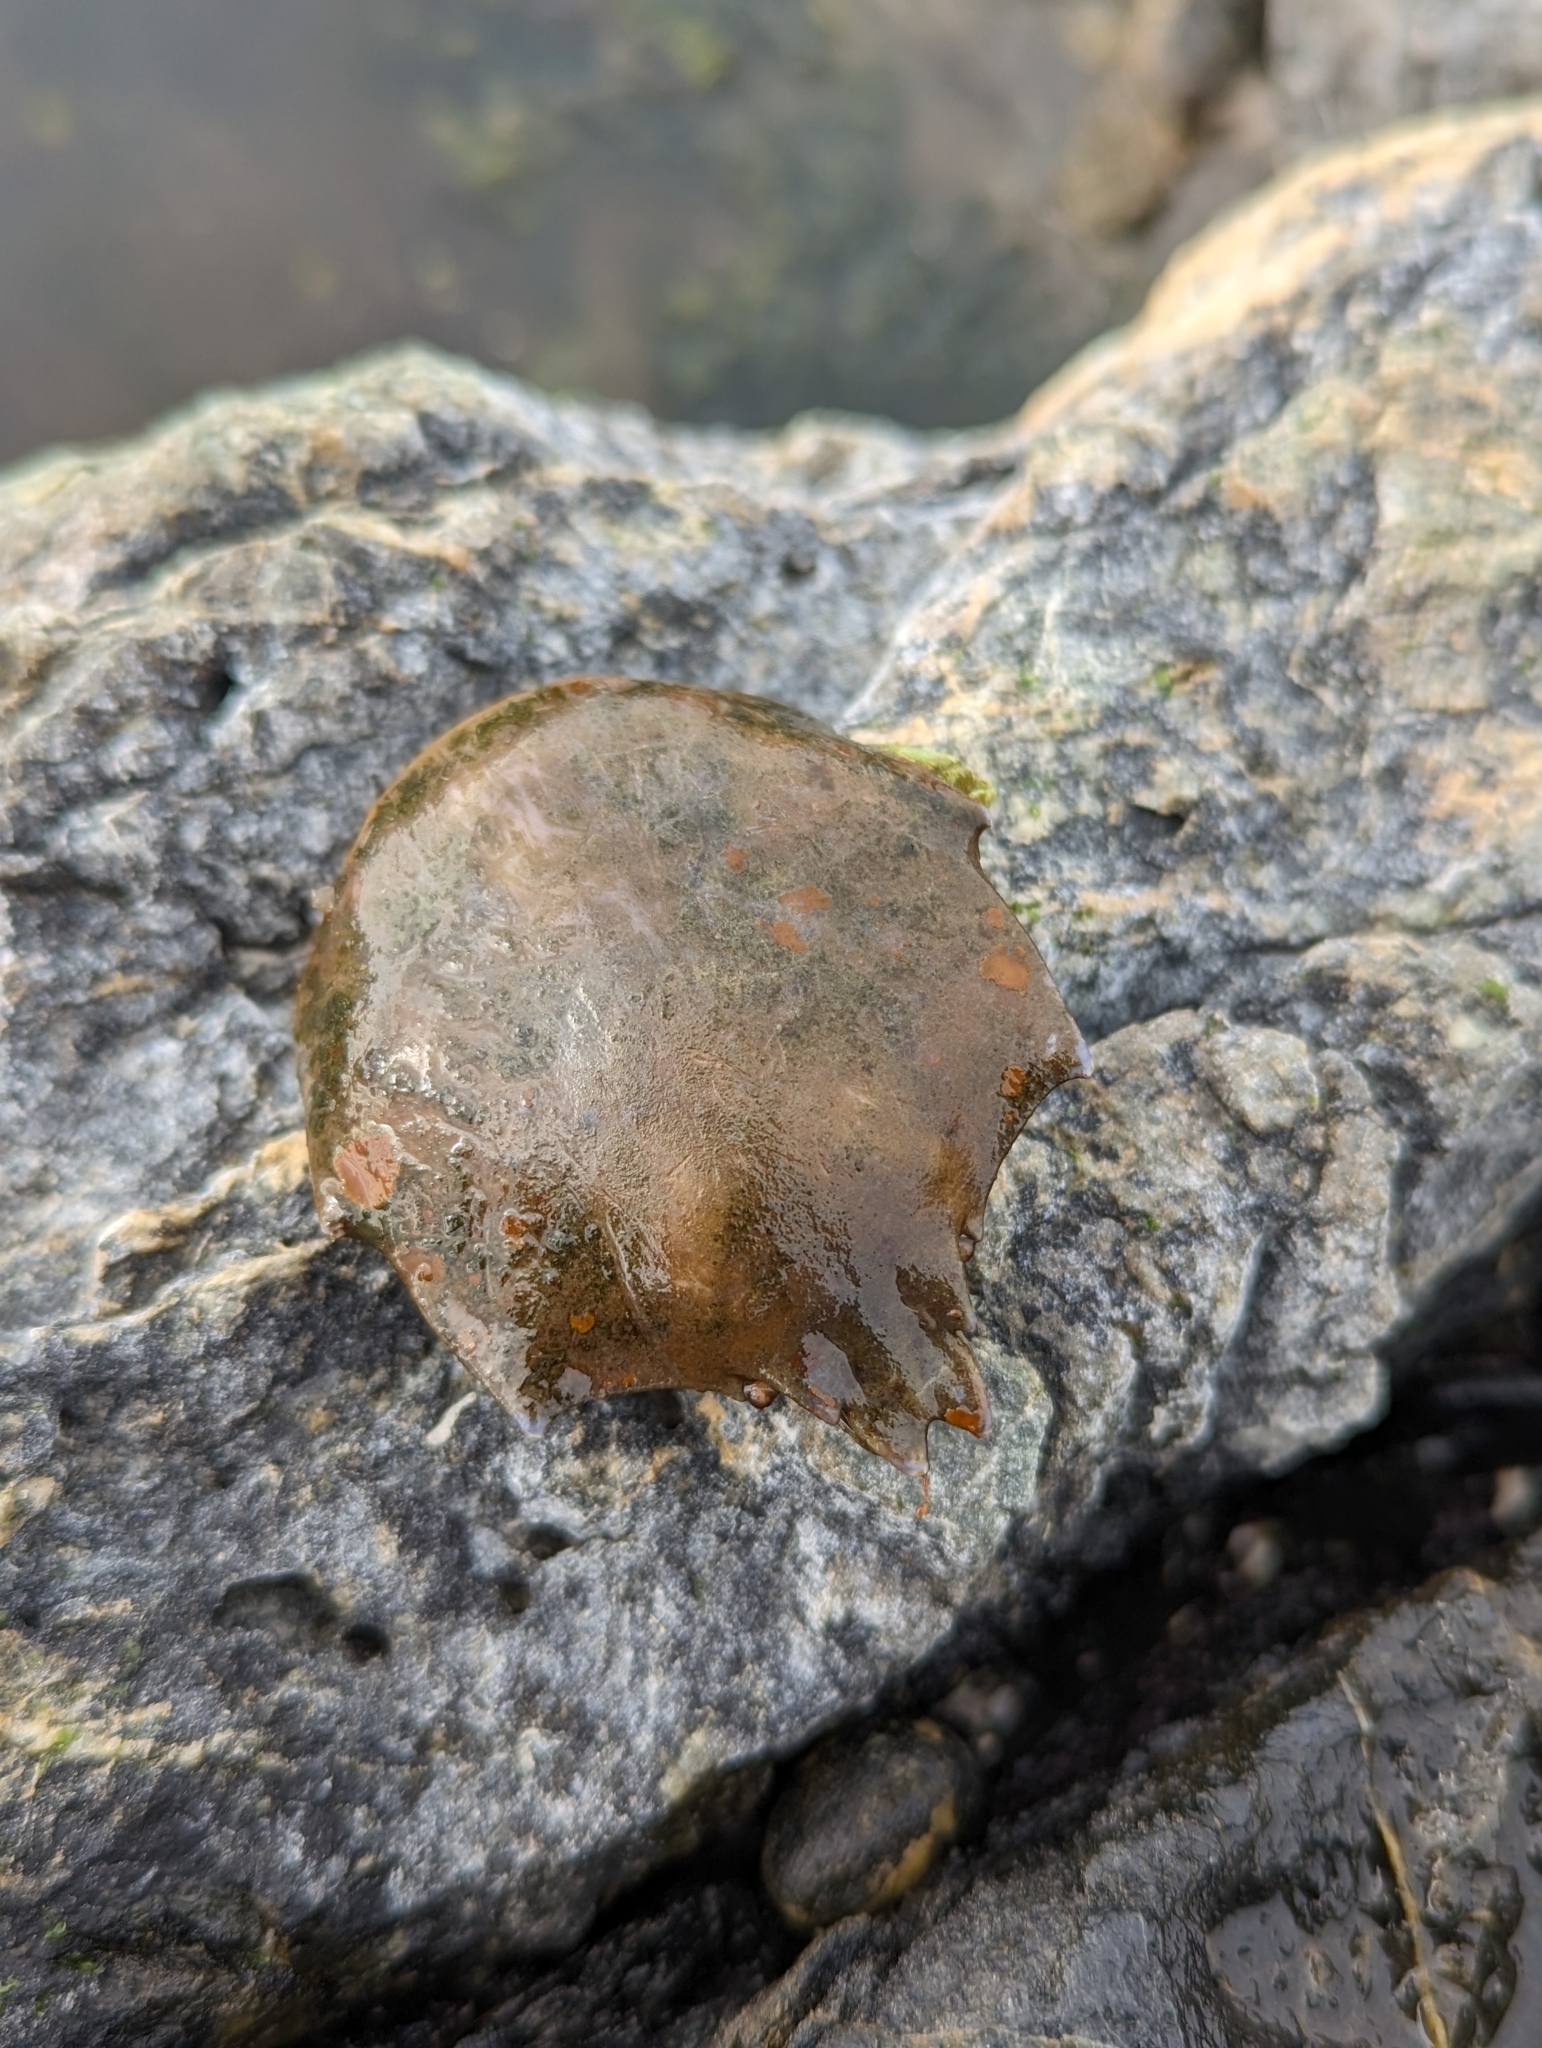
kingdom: Animalia
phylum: Arthropoda
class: Malacostraca
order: Decapoda
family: Epialtidae
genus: Pugettia
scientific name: Pugettia producta
